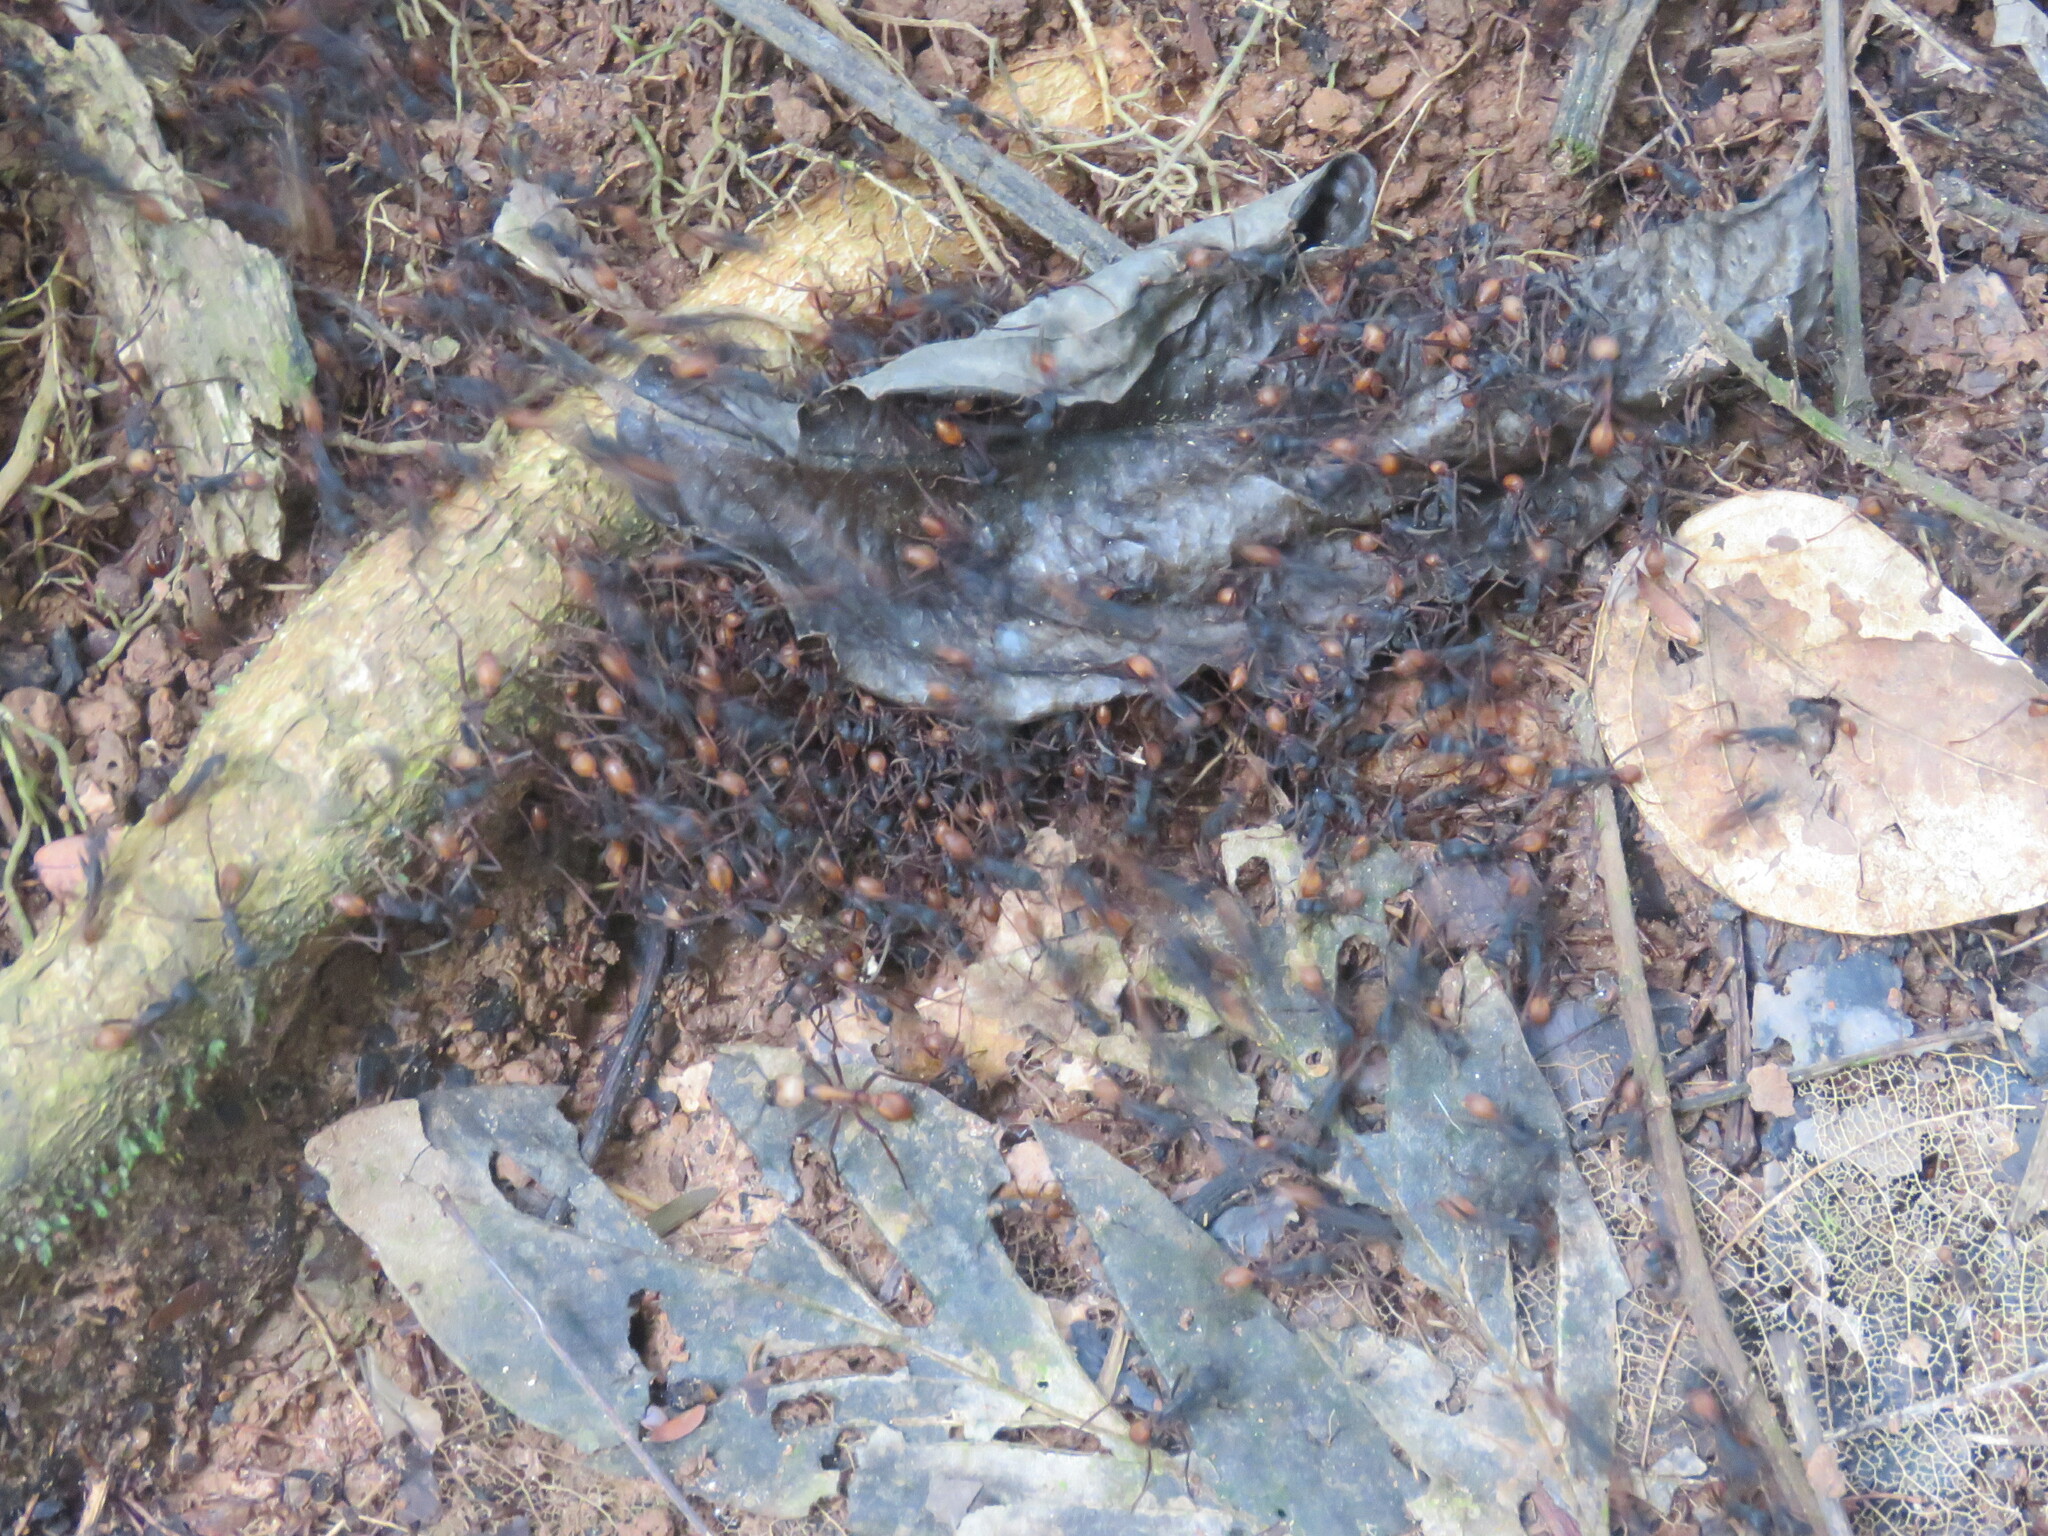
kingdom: Animalia
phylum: Arthropoda
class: Insecta
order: Hymenoptera
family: Formicidae
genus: Eciton
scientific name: Eciton burchellii
